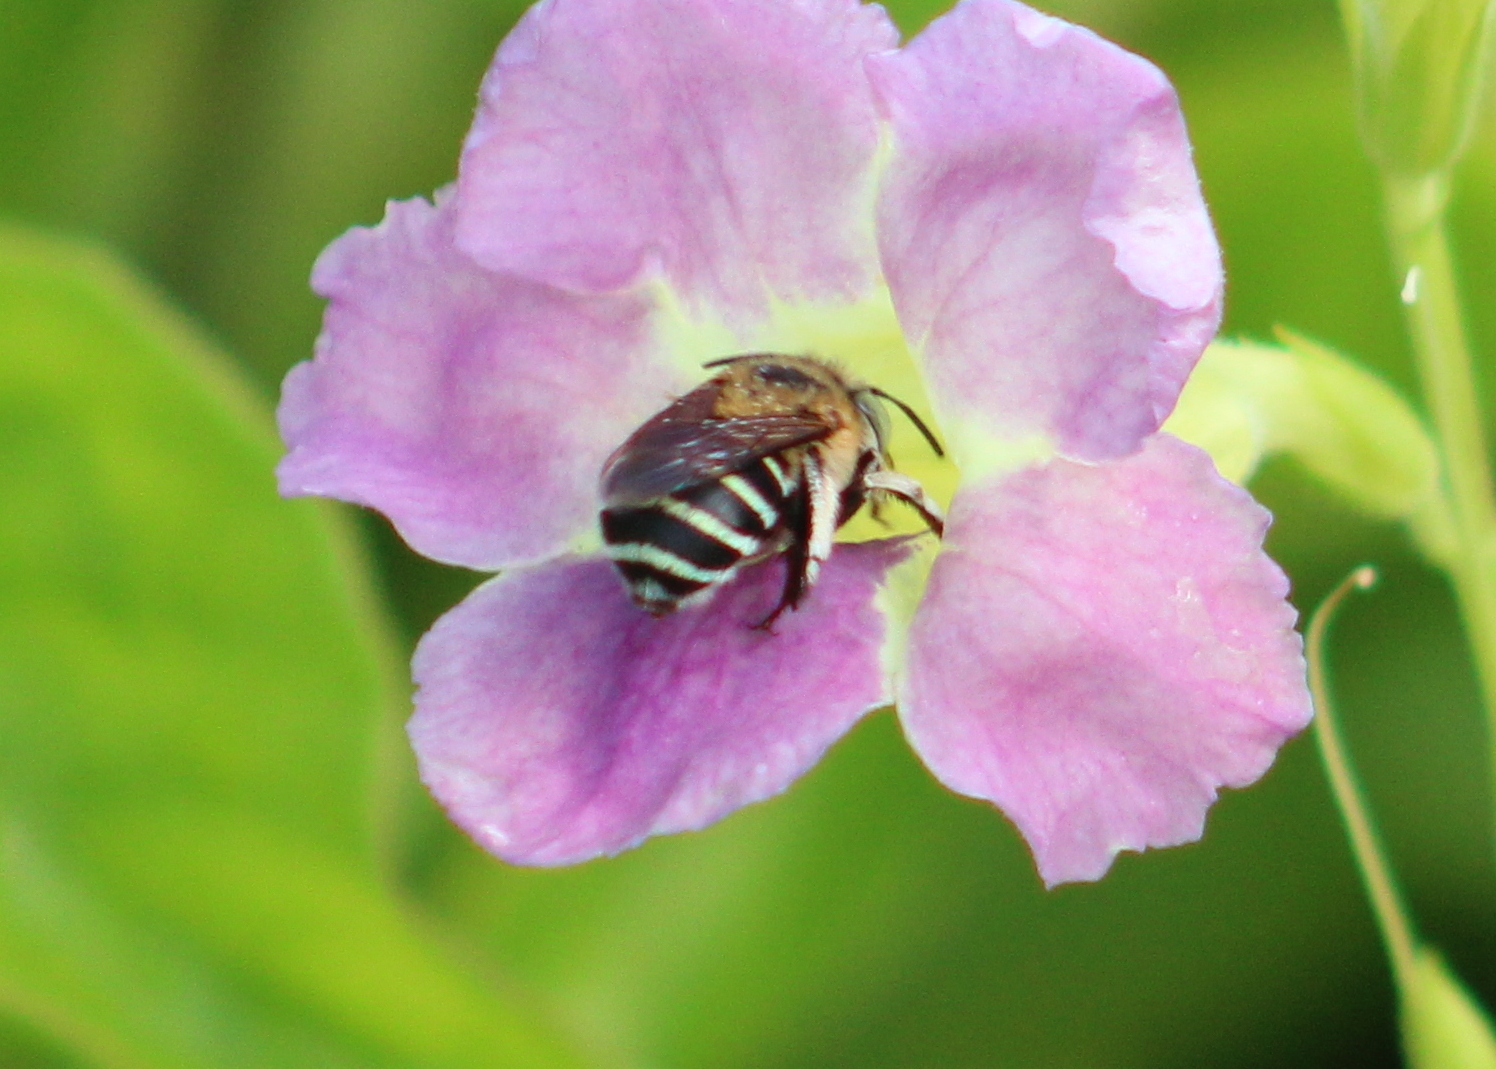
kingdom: Animalia
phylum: Arthropoda
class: Insecta
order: Hymenoptera
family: Apidae
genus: Amegilla
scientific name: Amegilla pulchra
